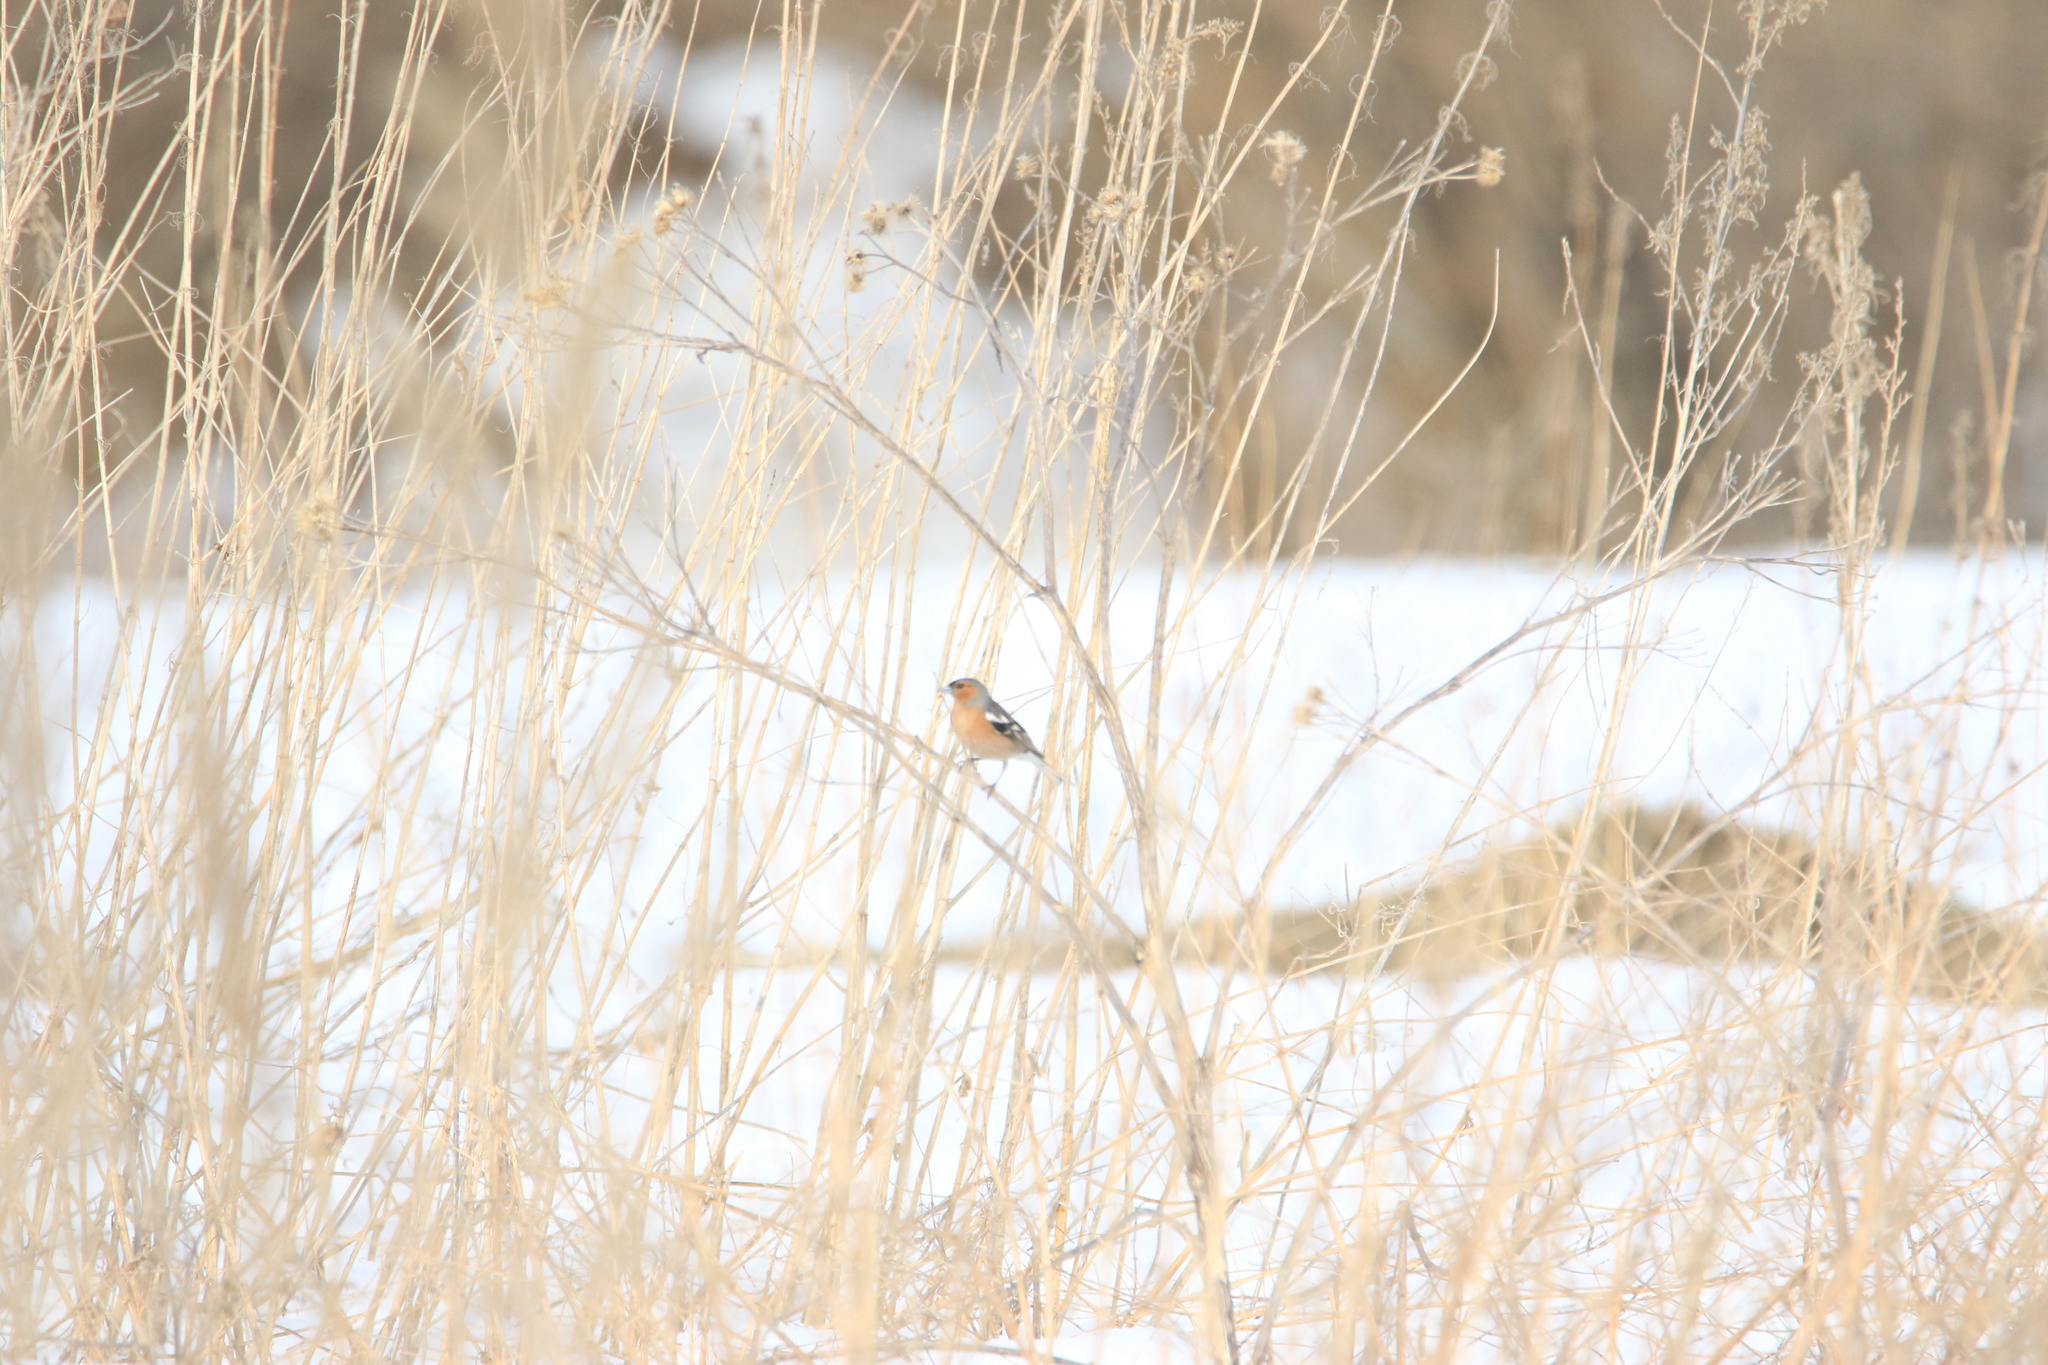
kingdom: Animalia
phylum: Chordata
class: Aves
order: Passeriformes
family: Fringillidae
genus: Fringilla
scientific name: Fringilla coelebs
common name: Common chaffinch
